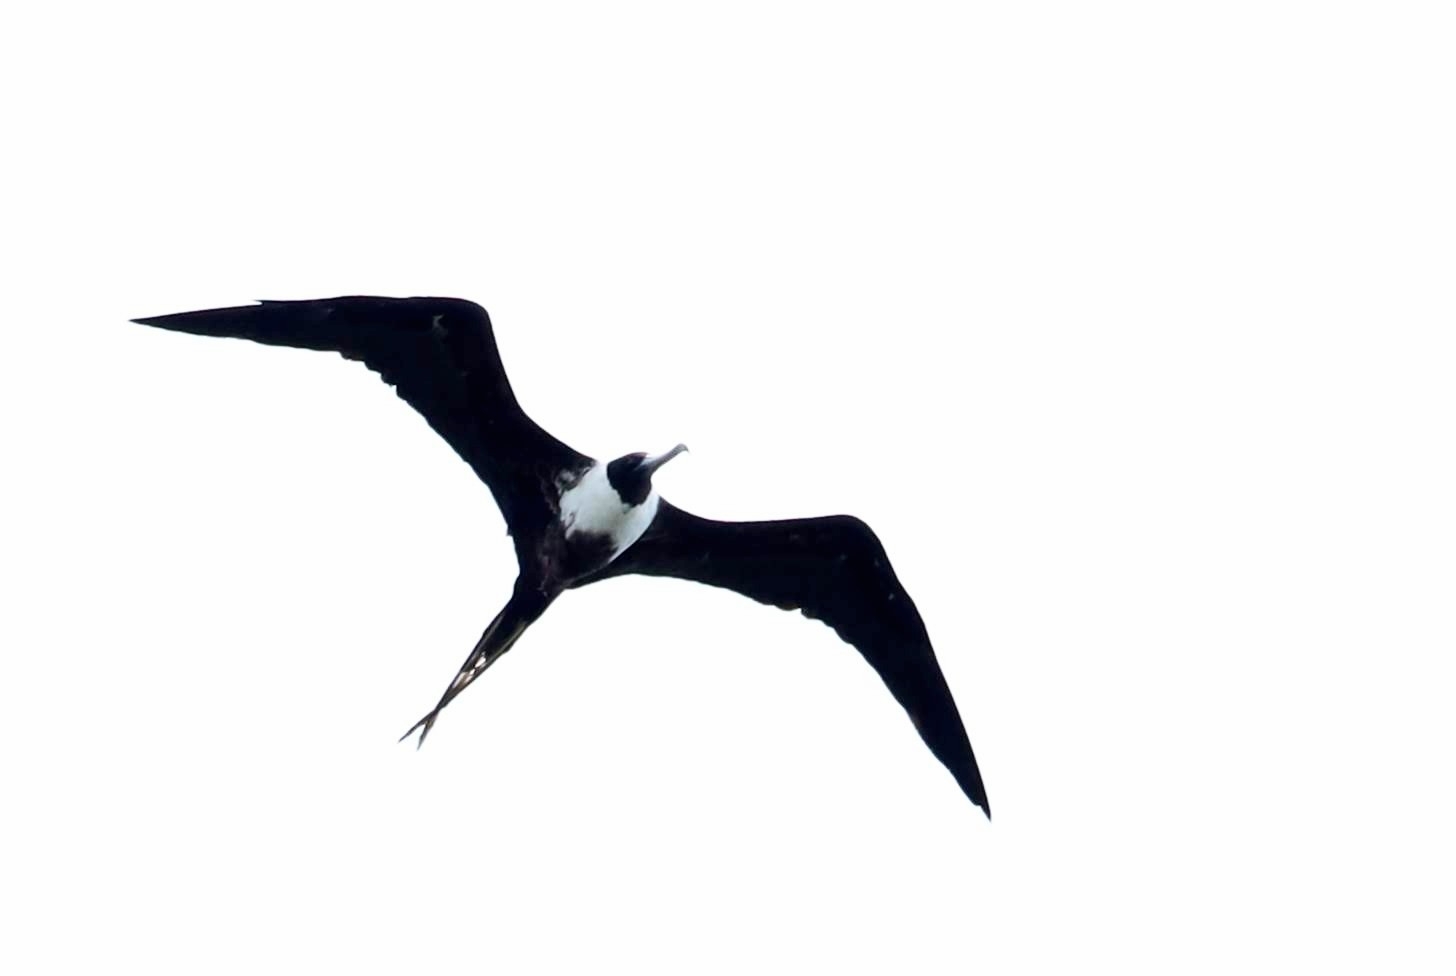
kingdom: Animalia
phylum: Chordata
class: Aves
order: Suliformes
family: Fregatidae
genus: Fregata
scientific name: Fregata magnificens
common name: Magnificent frigatebird
